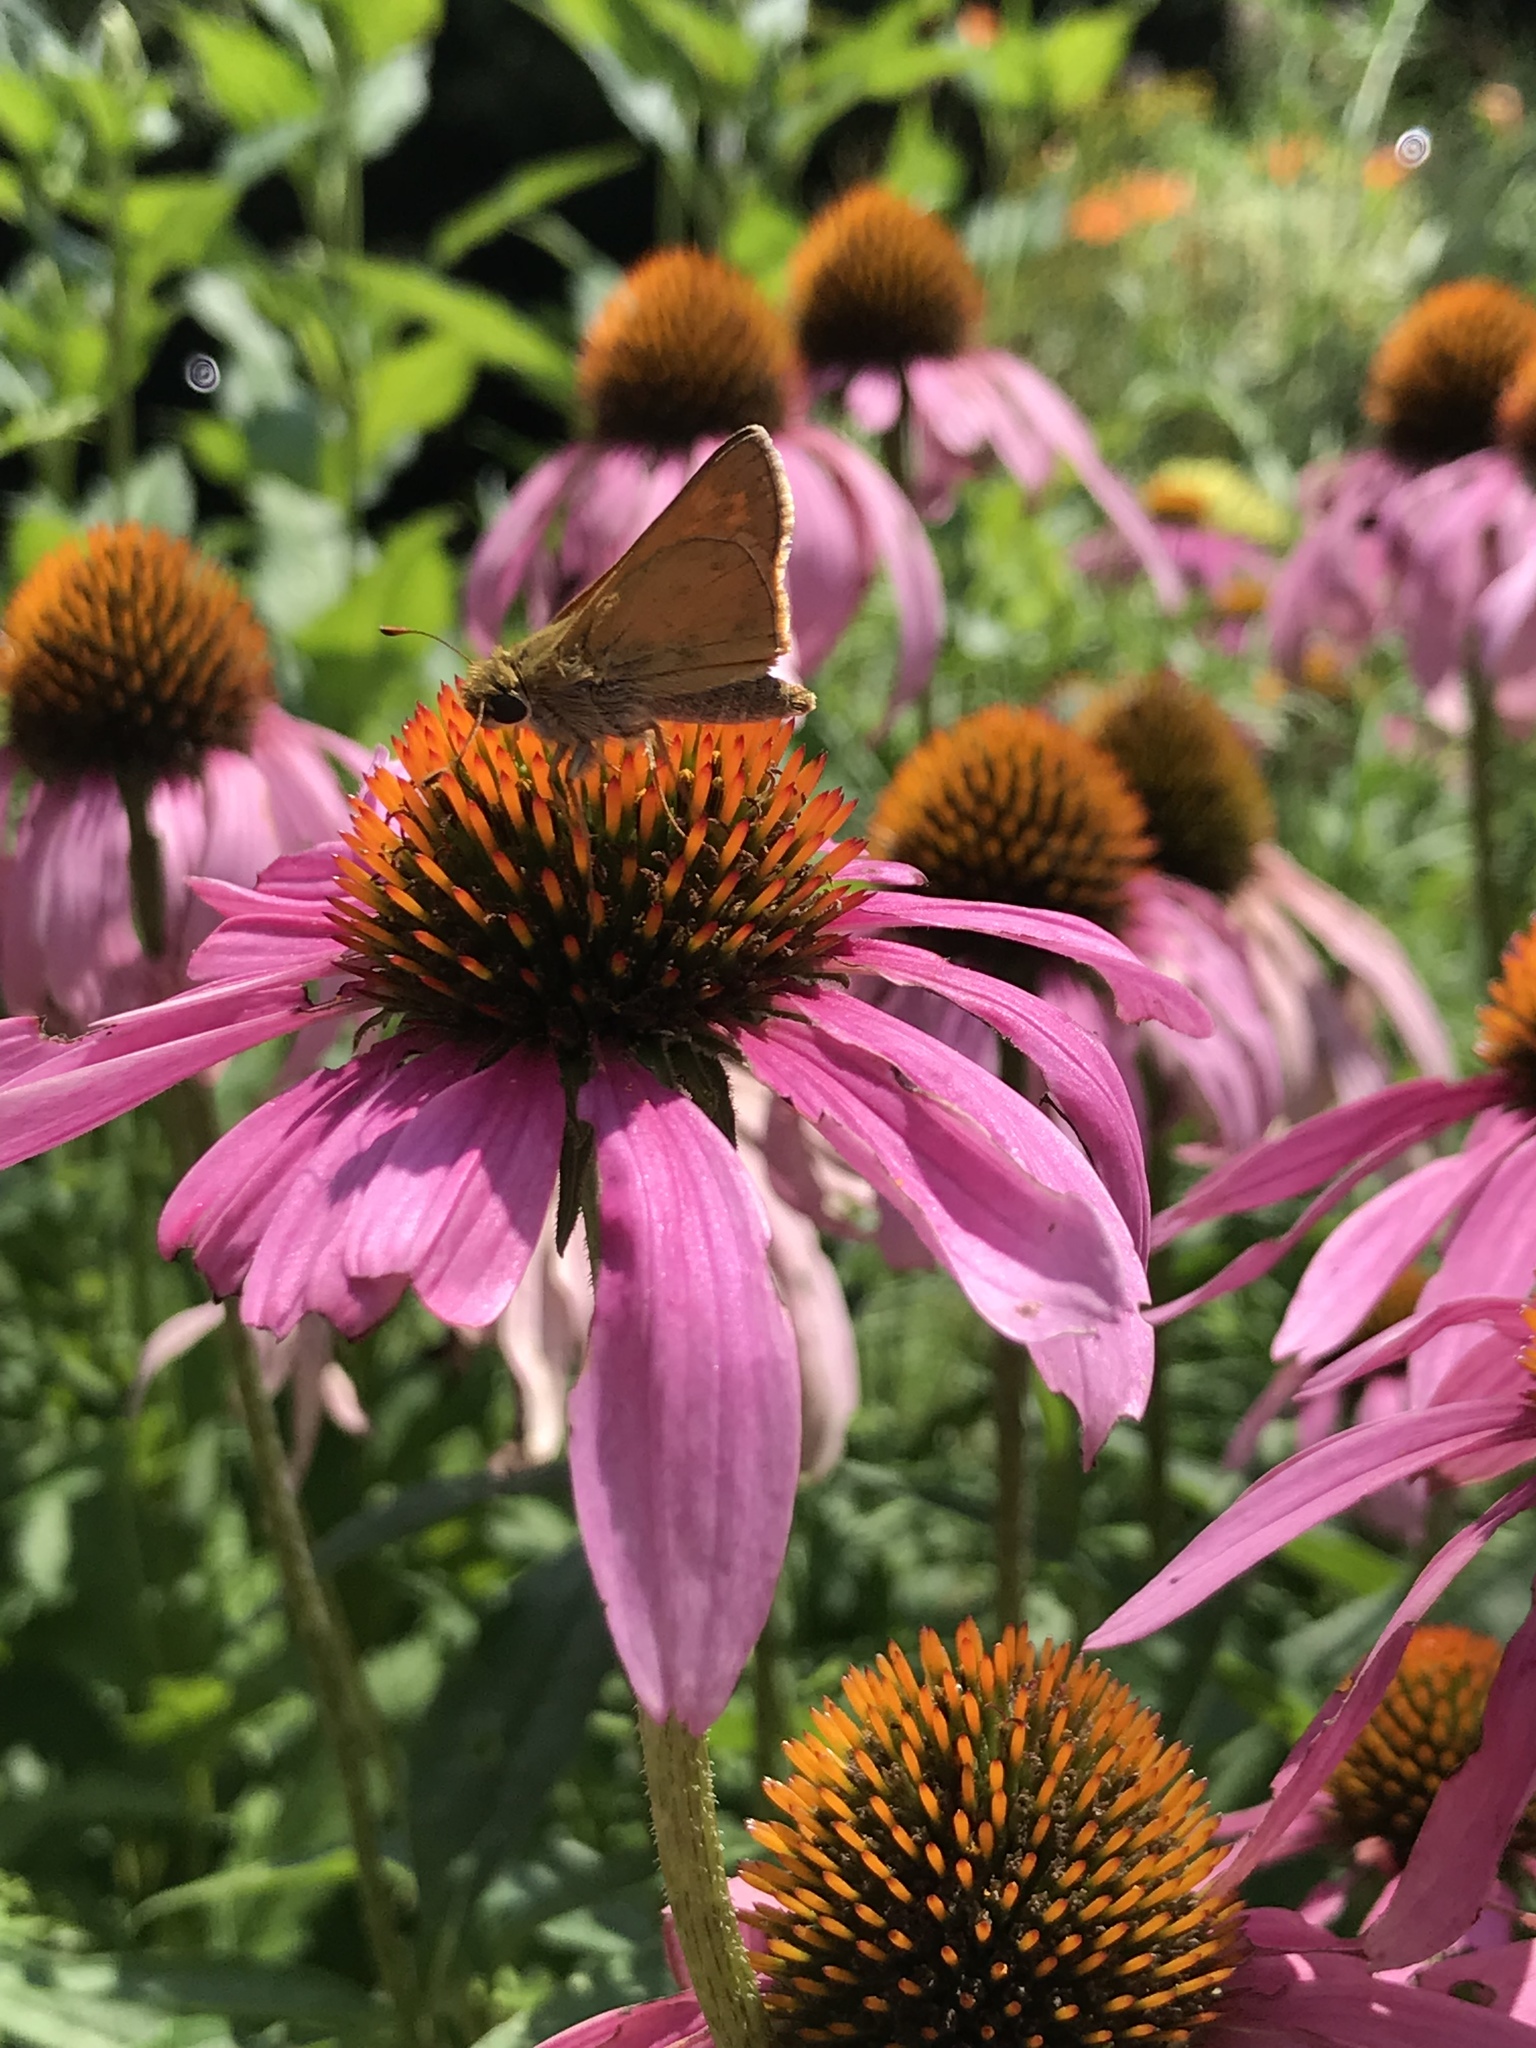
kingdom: Animalia
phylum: Arthropoda
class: Insecta
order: Lepidoptera
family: Hesperiidae
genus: Atalopedes
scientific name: Atalopedes
